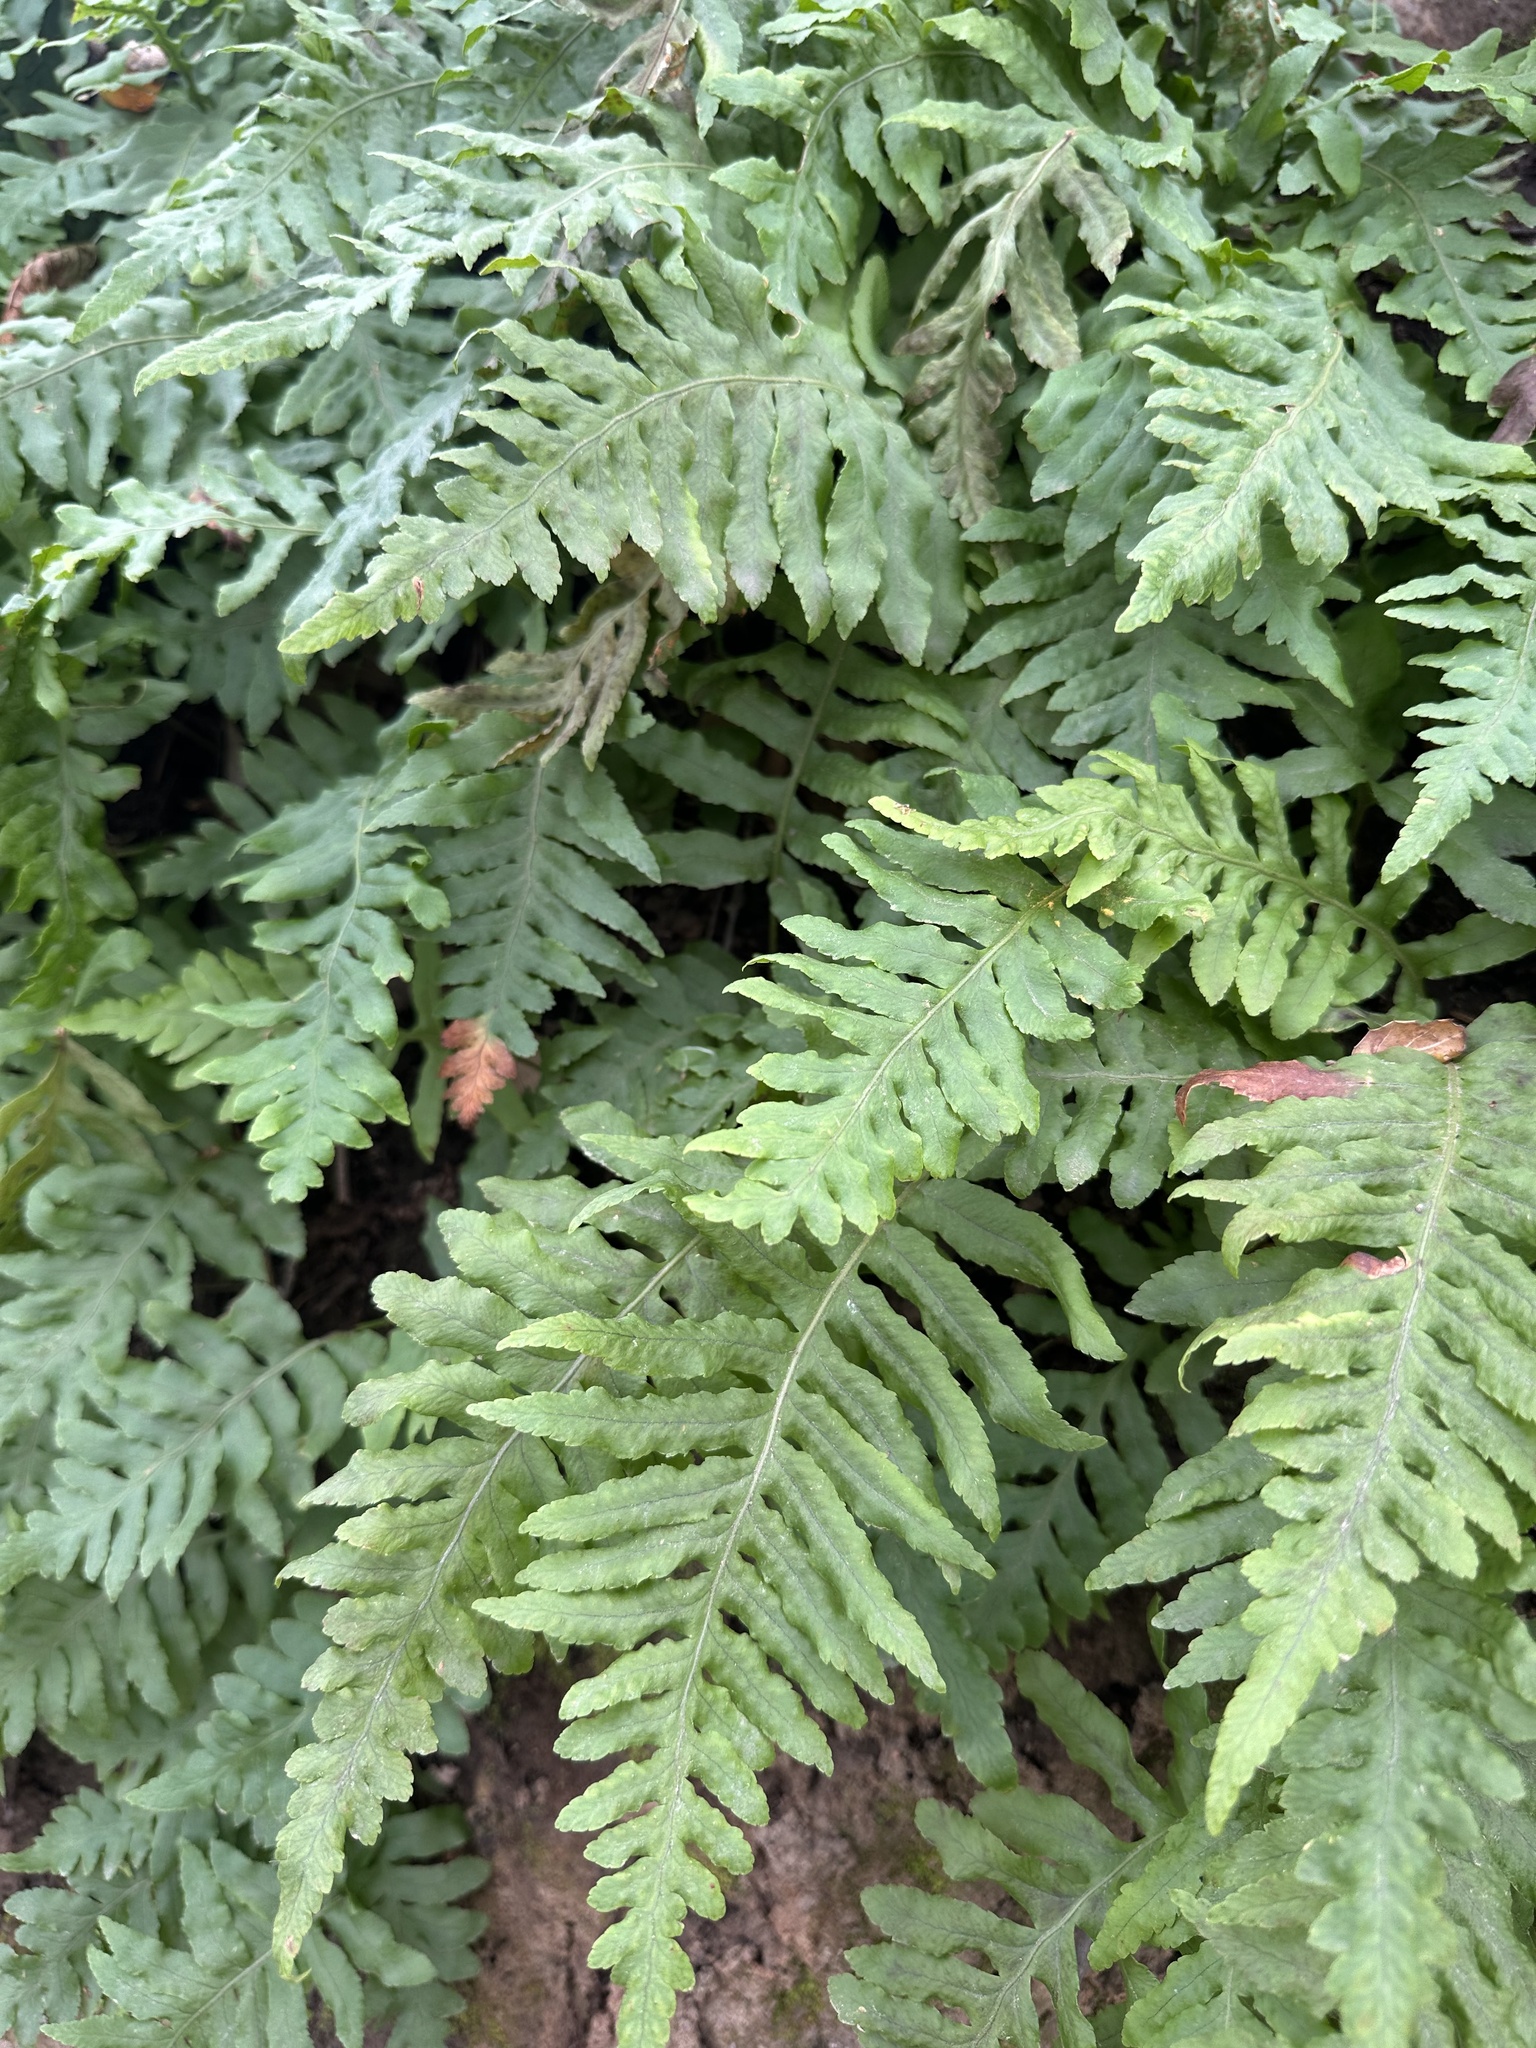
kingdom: Plantae
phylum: Tracheophyta
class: Polypodiopsida
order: Polypodiales
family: Polypodiaceae
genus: Polypodium
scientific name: Polypodium californicum
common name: California polypody
